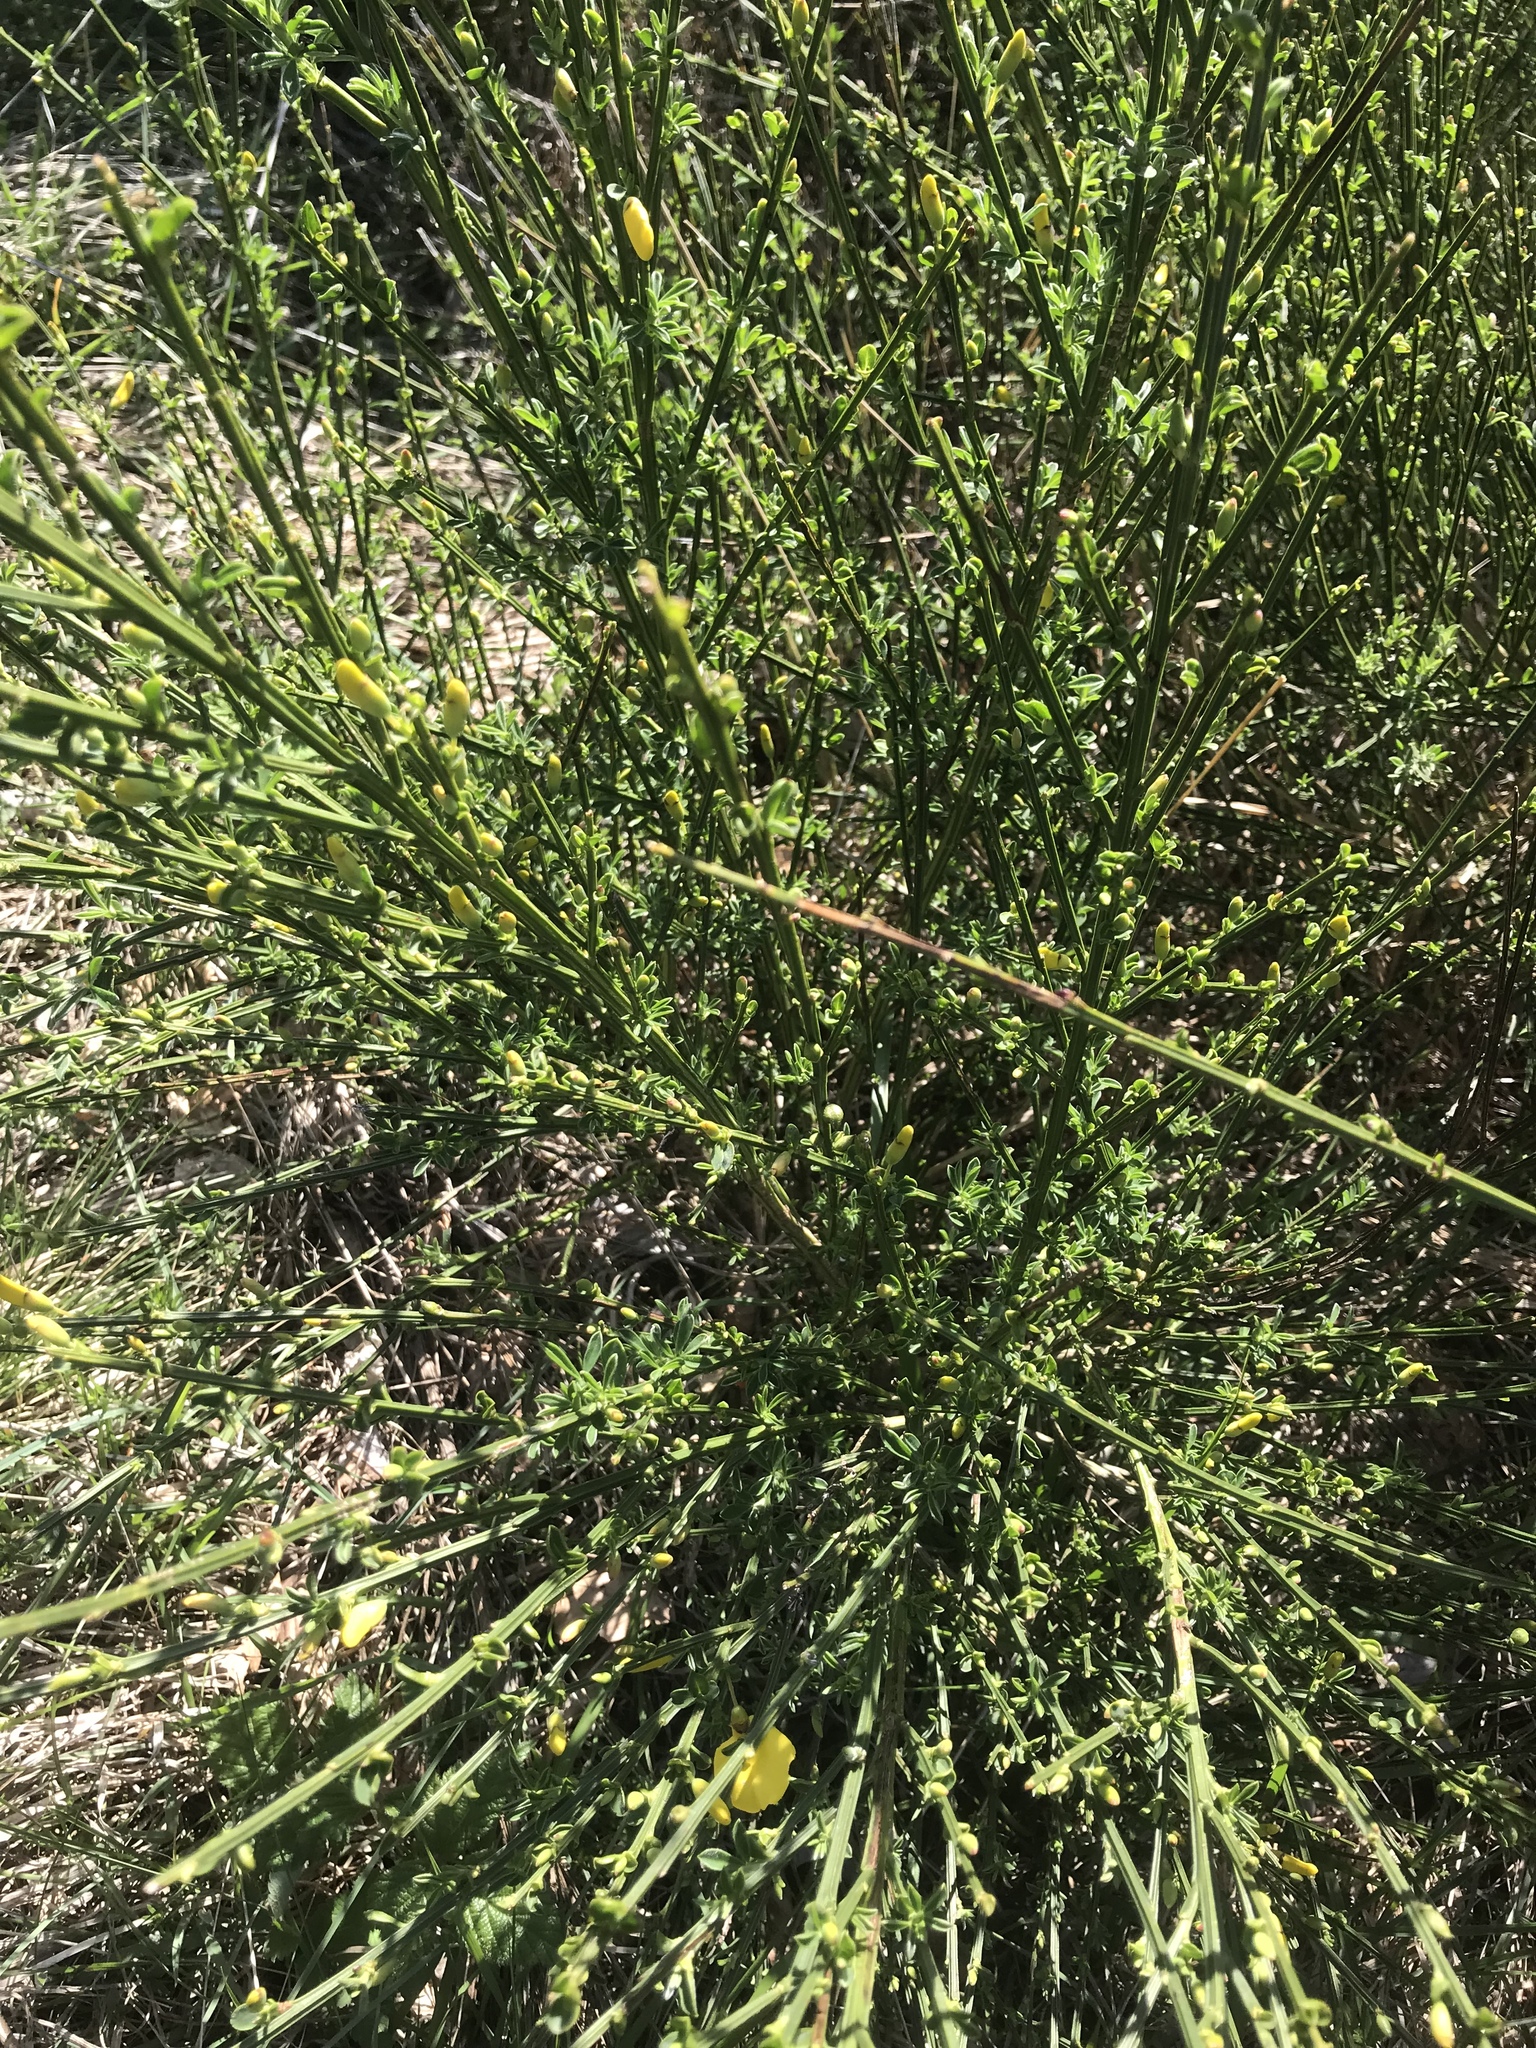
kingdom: Plantae
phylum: Tracheophyta
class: Magnoliopsida
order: Fabales
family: Fabaceae
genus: Spartium
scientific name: Spartium junceum
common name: Spanish broom
